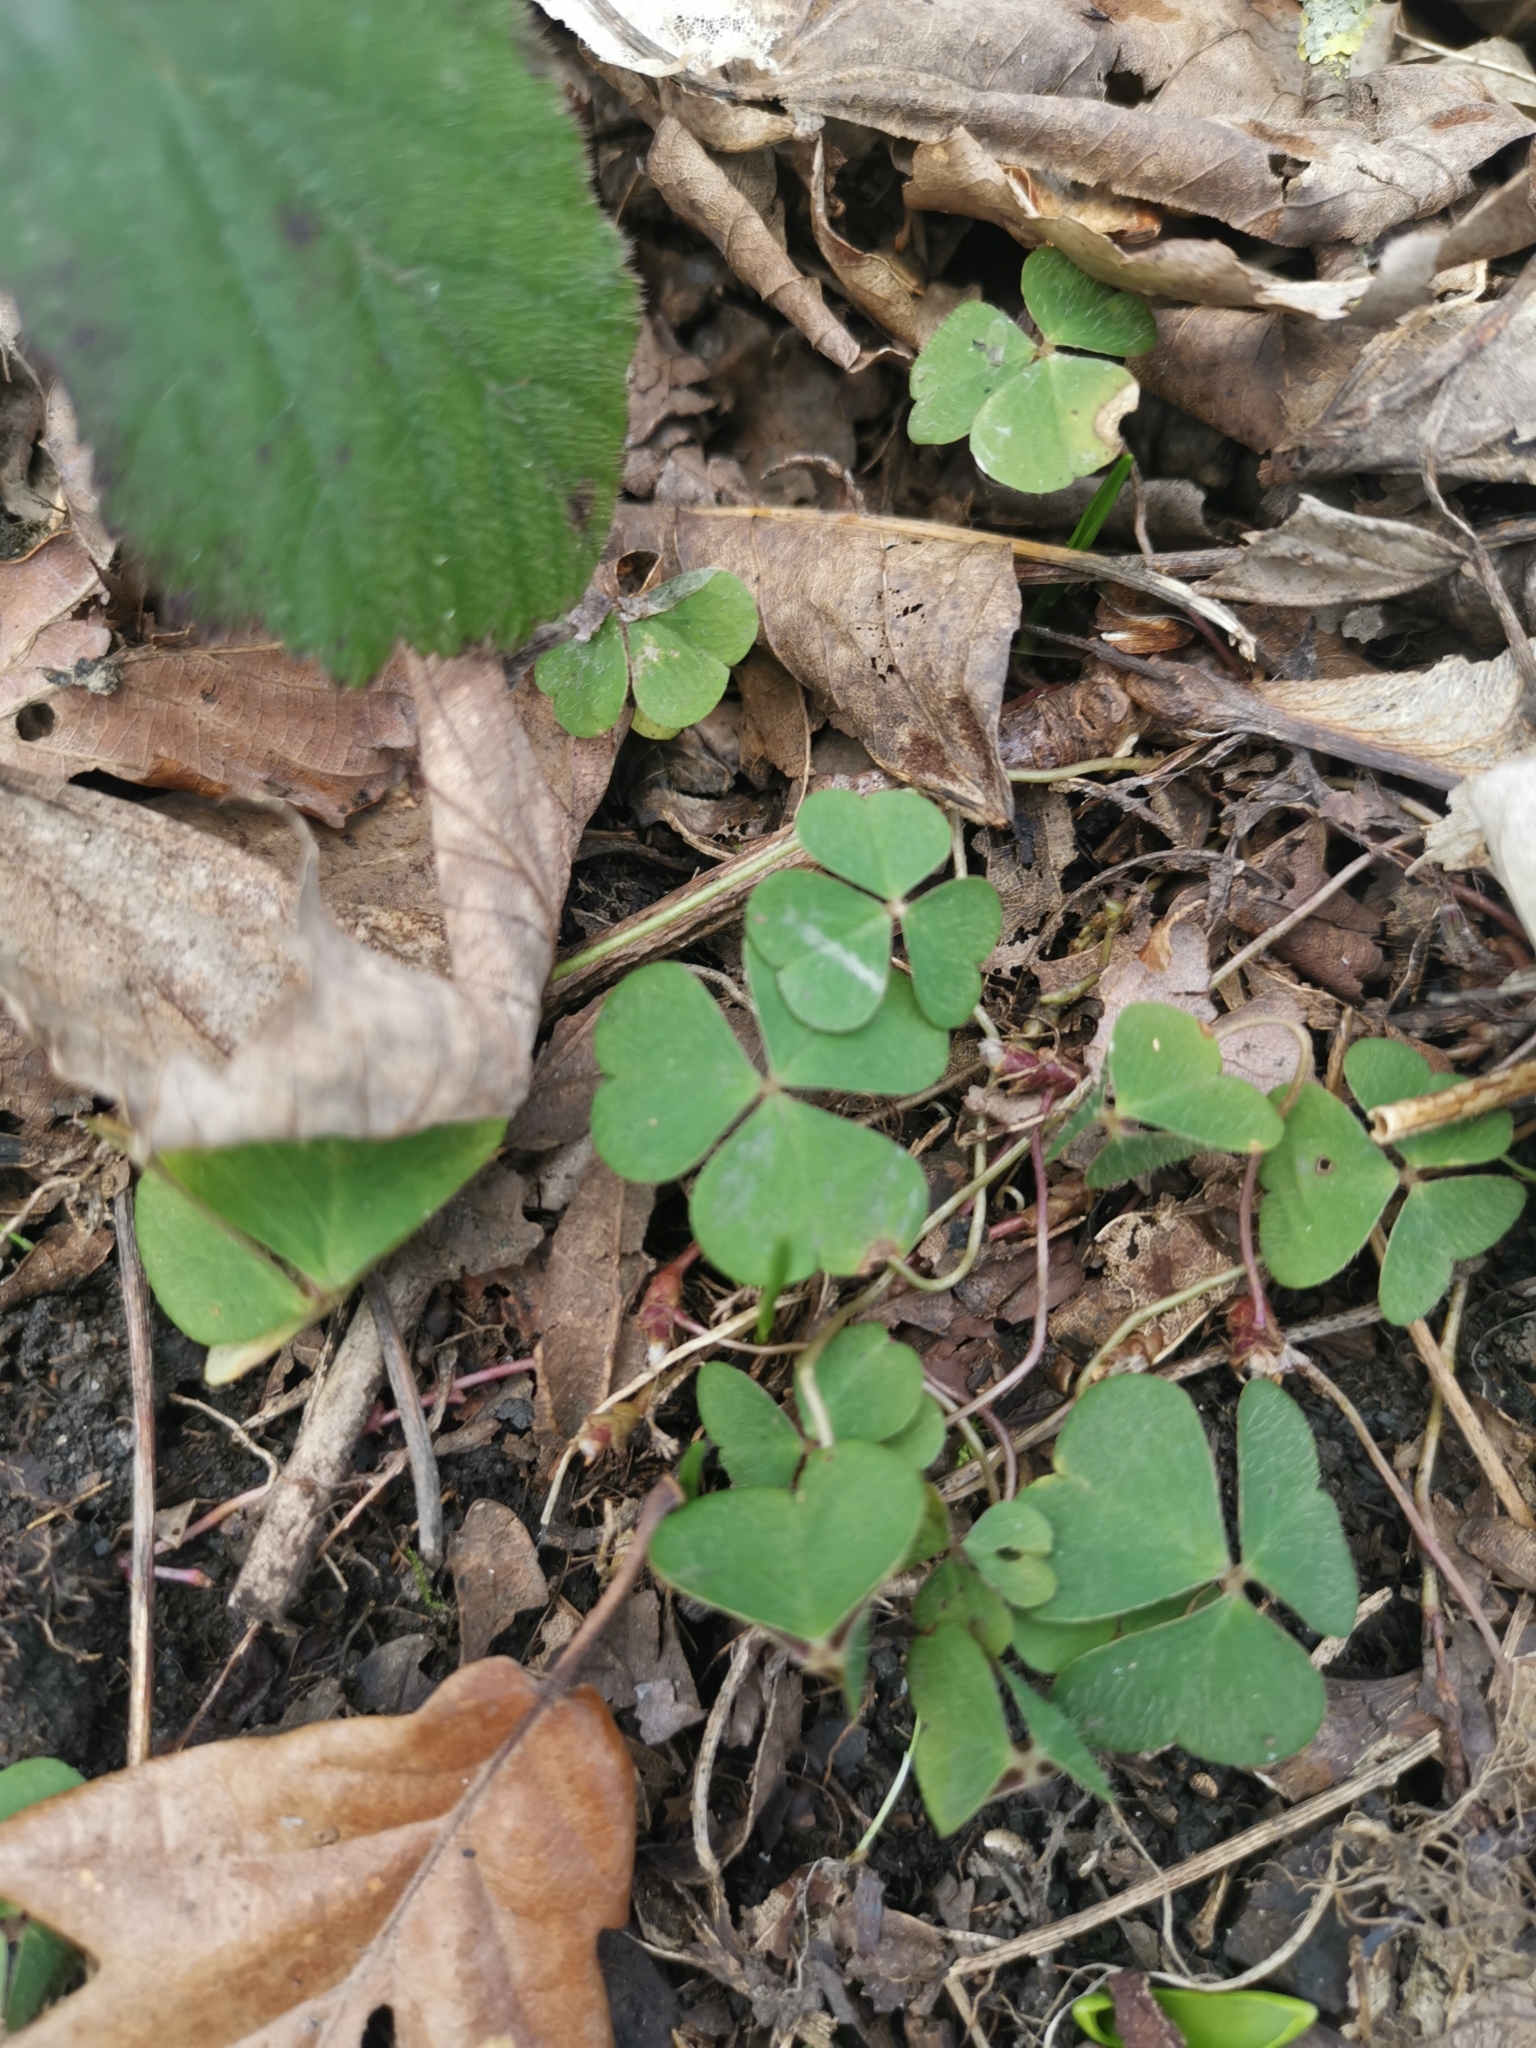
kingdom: Plantae
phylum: Tracheophyta
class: Magnoliopsida
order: Oxalidales
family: Oxalidaceae
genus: Oxalis
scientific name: Oxalis acetosella
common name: Wood-sorrel
